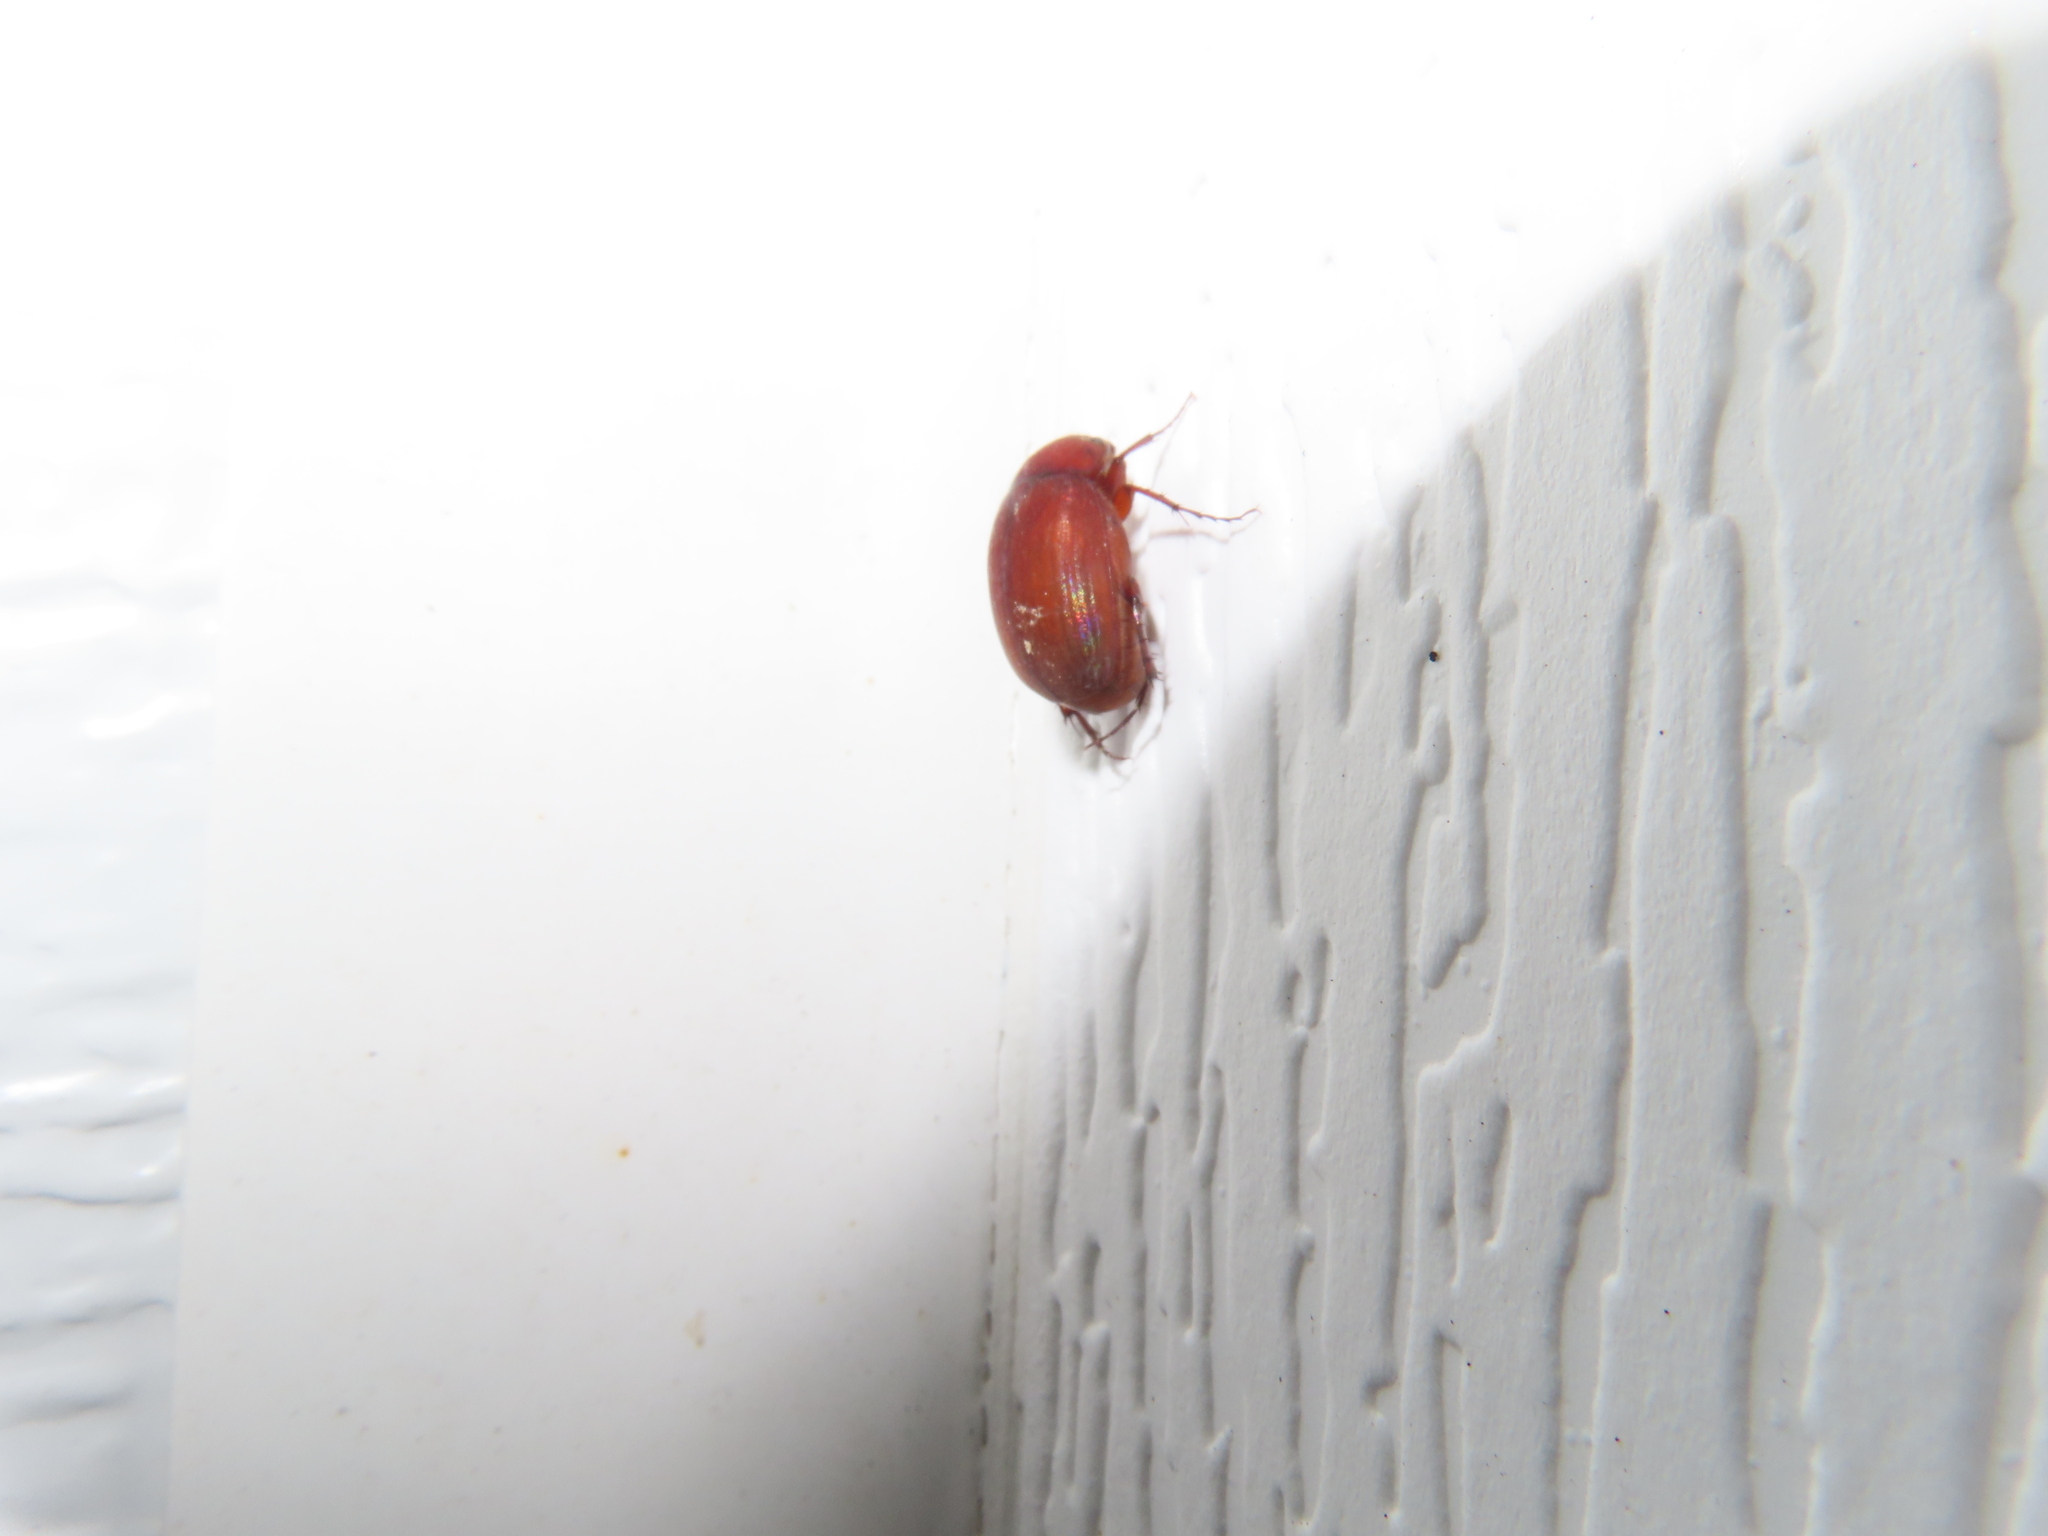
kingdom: Animalia
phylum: Arthropoda
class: Insecta
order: Coleoptera
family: Scarabaeidae
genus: Maladera
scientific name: Maladera formosae
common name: Asiatic garden beetle
